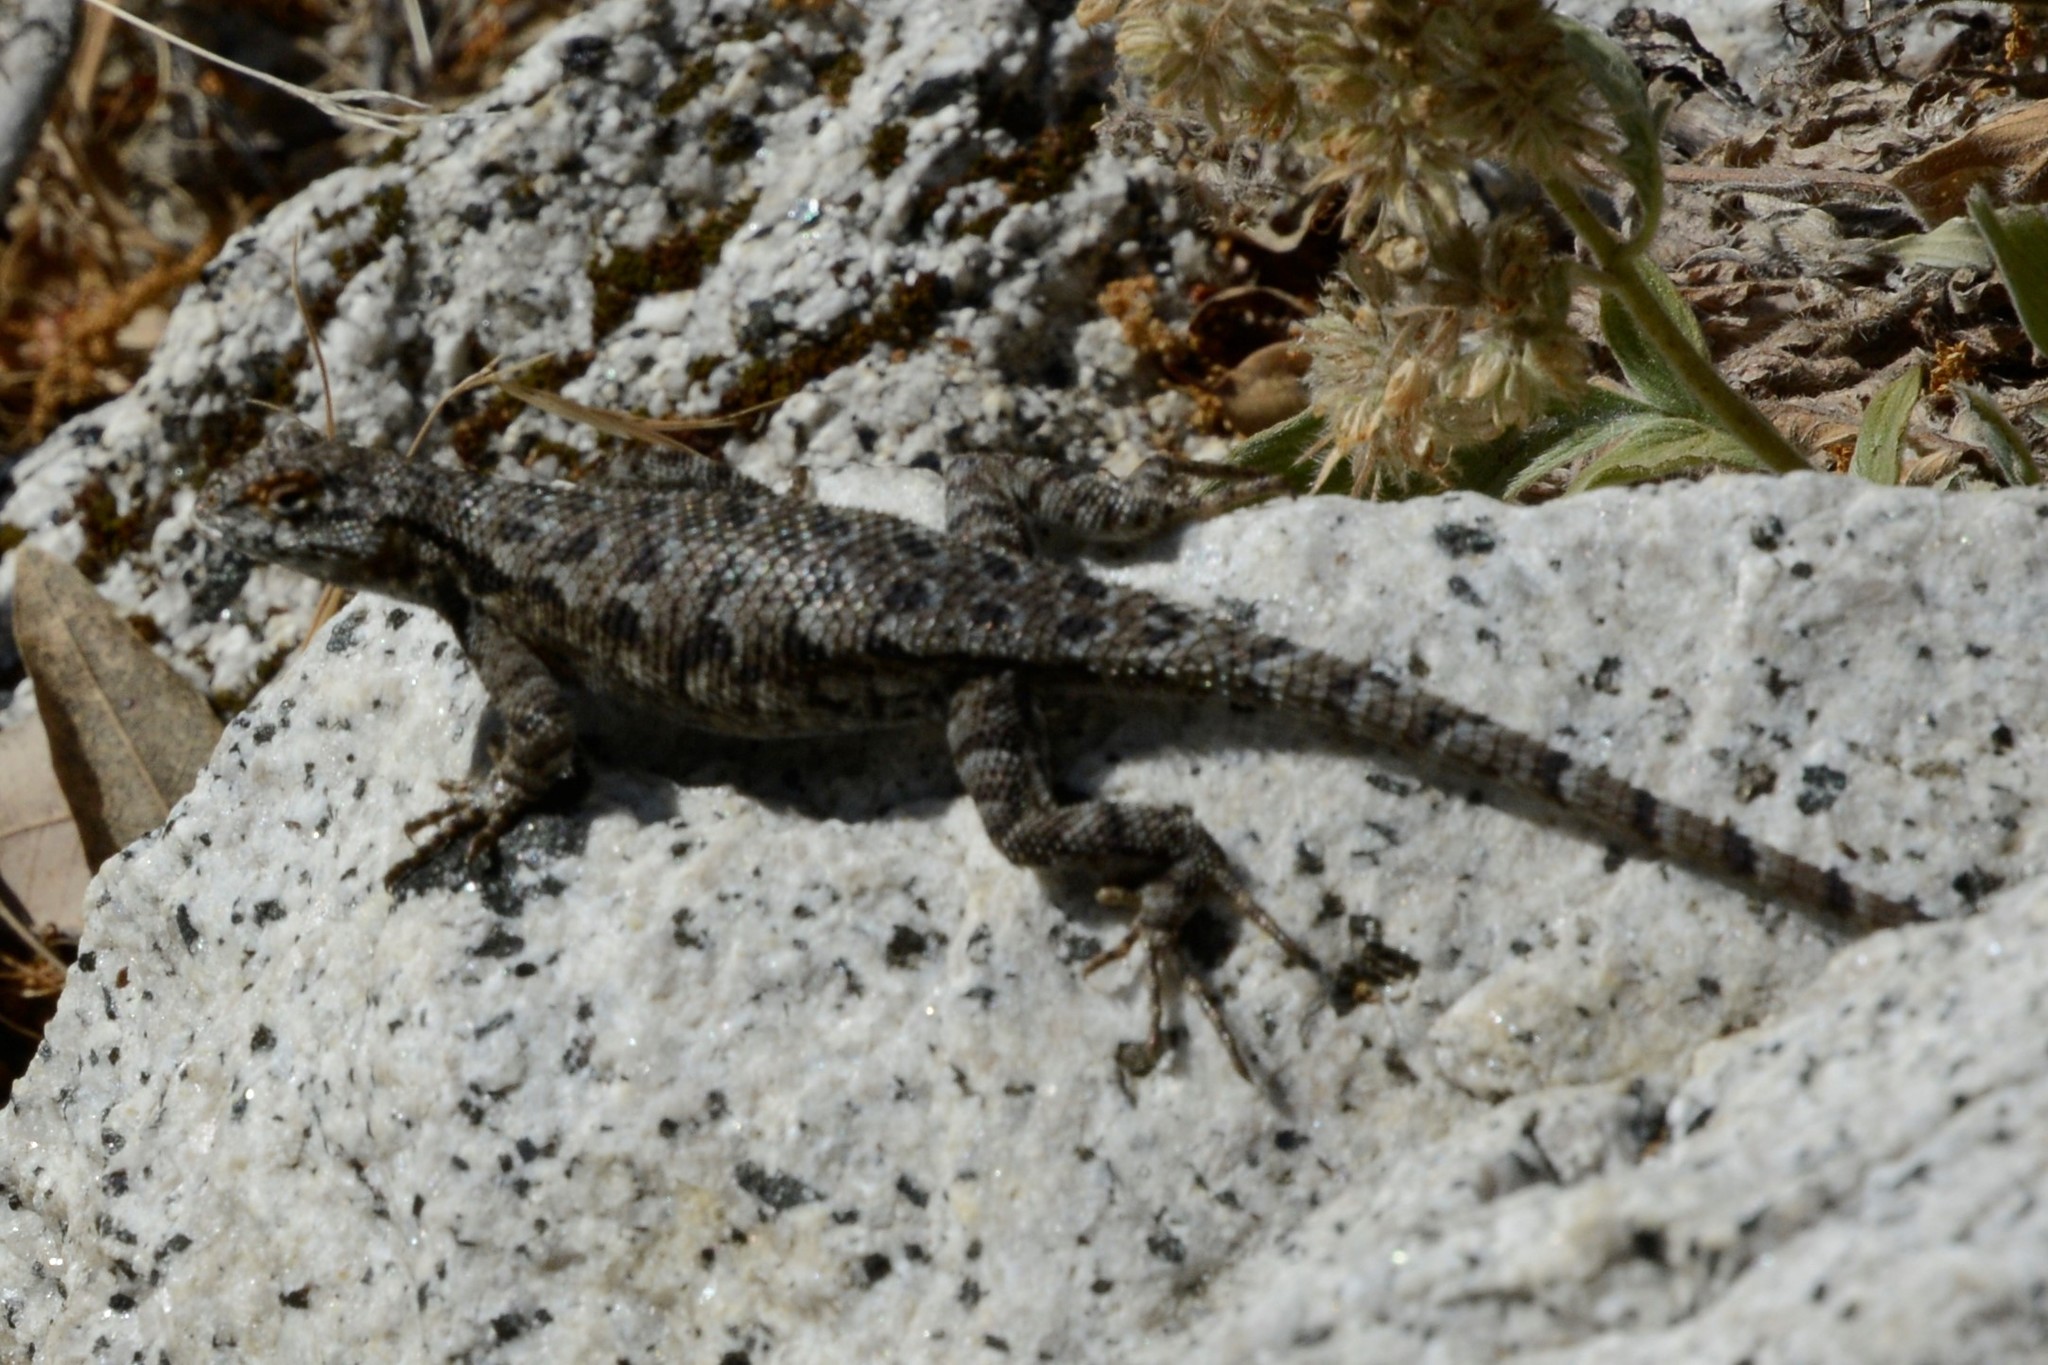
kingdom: Animalia
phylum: Chordata
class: Squamata
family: Phrynosomatidae
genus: Sceloporus
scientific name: Sceloporus occidentalis
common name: Western fence lizard
